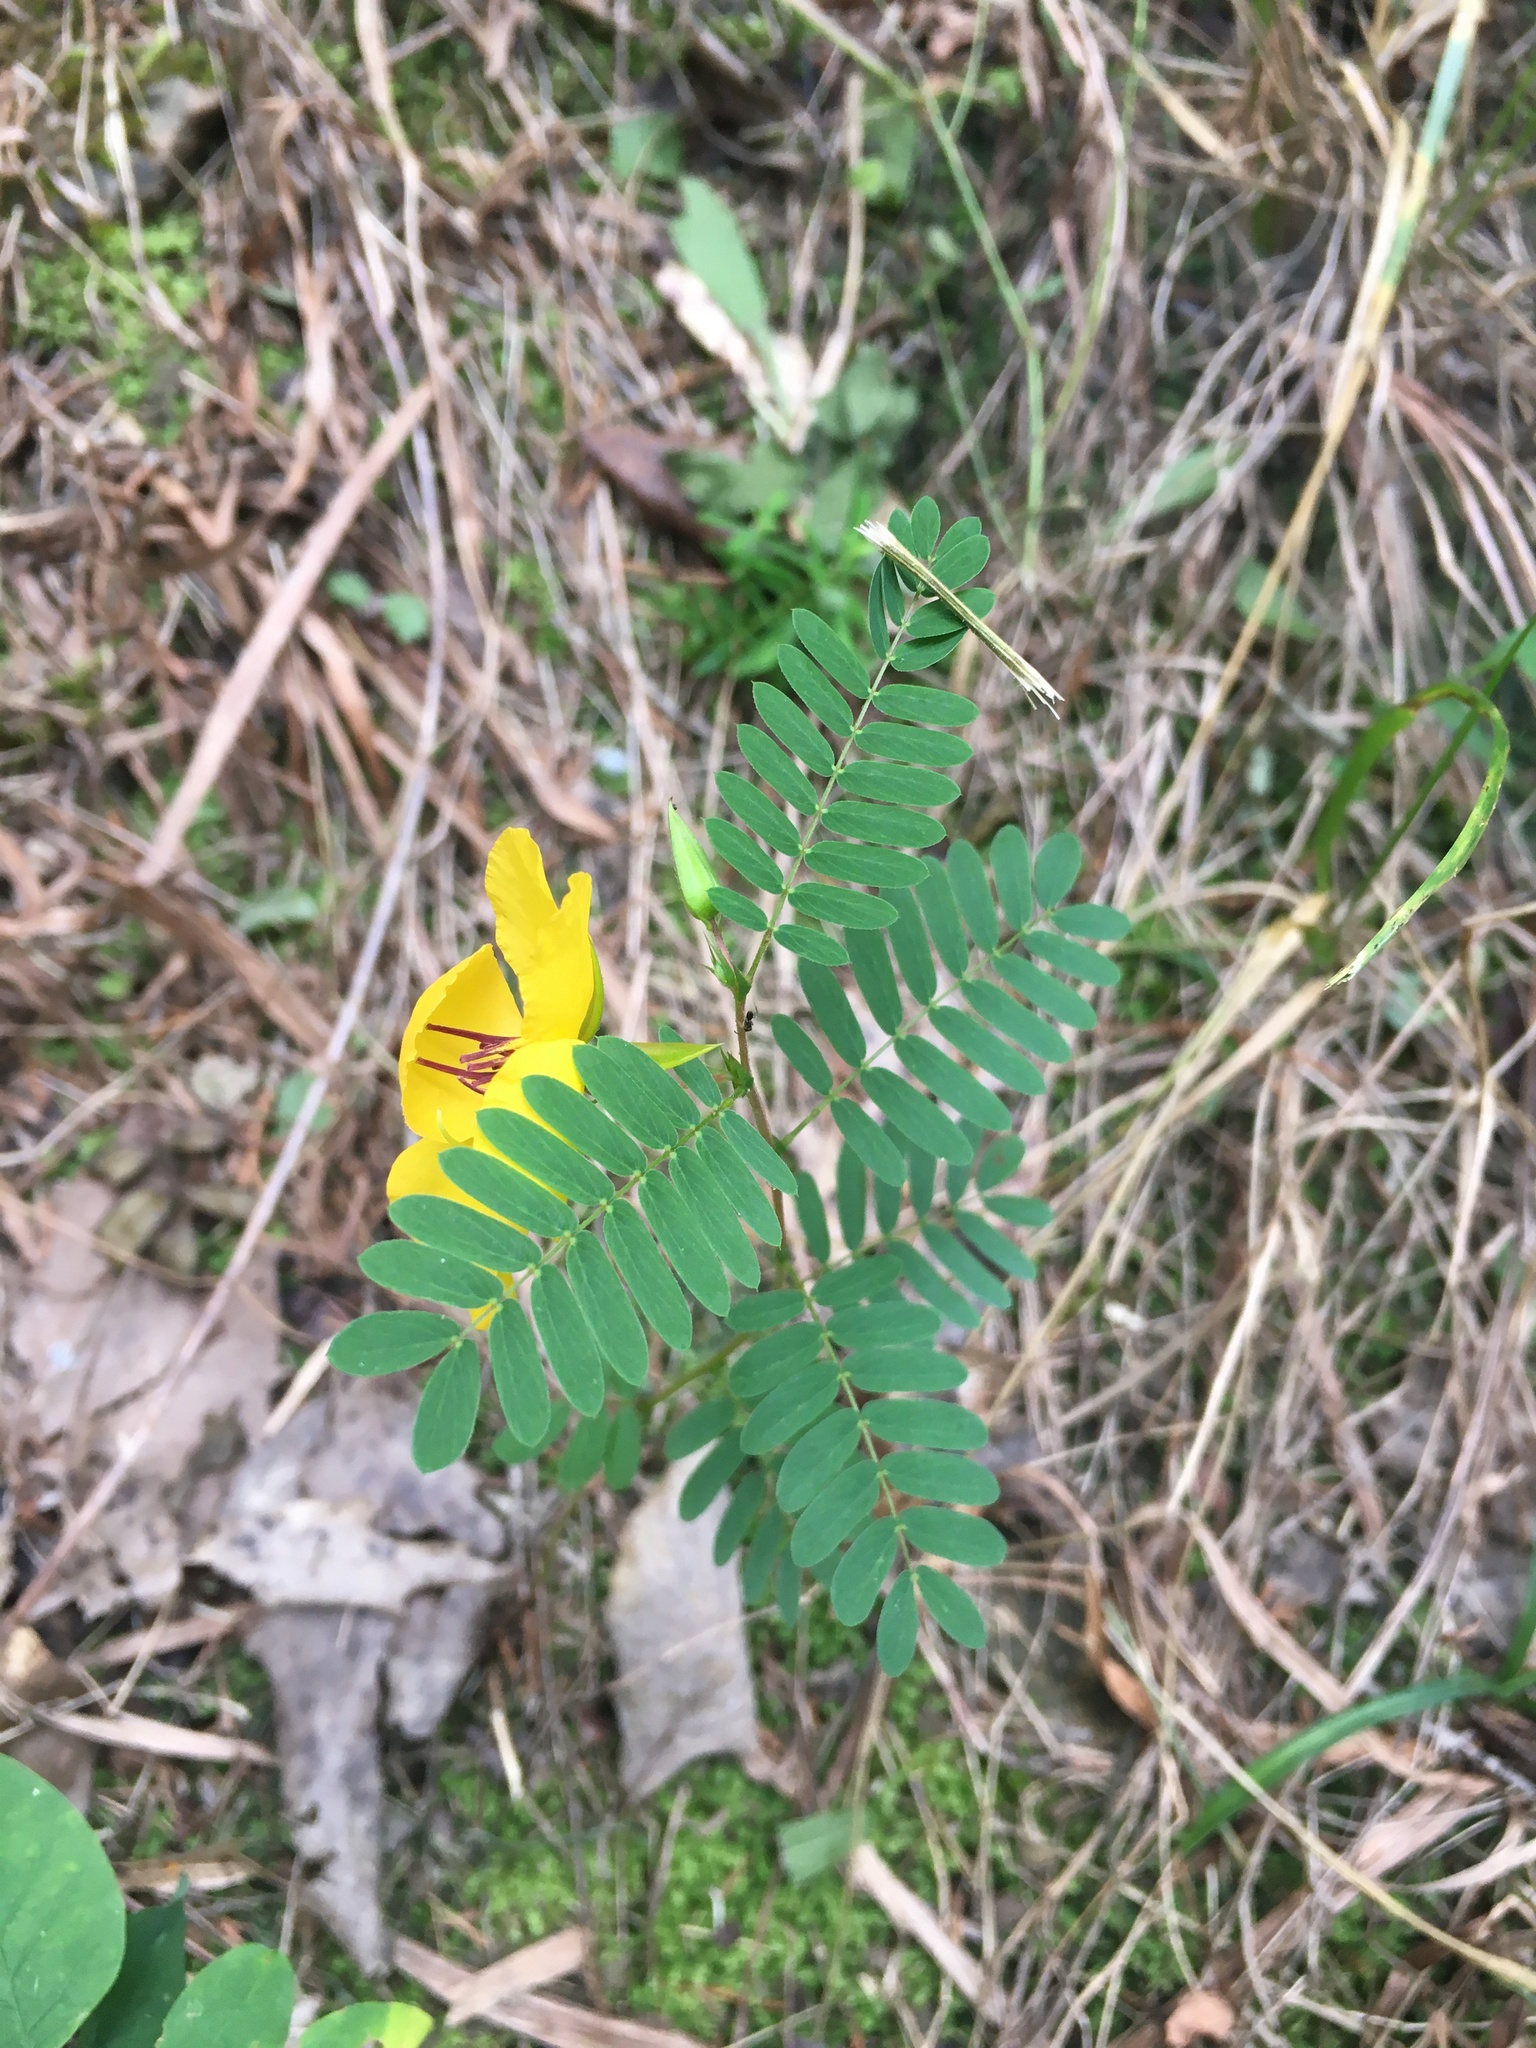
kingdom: Plantae
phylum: Tracheophyta
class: Magnoliopsida
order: Fabales
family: Fabaceae
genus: Chamaecrista
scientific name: Chamaecrista fasciculata
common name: Golden cassia
